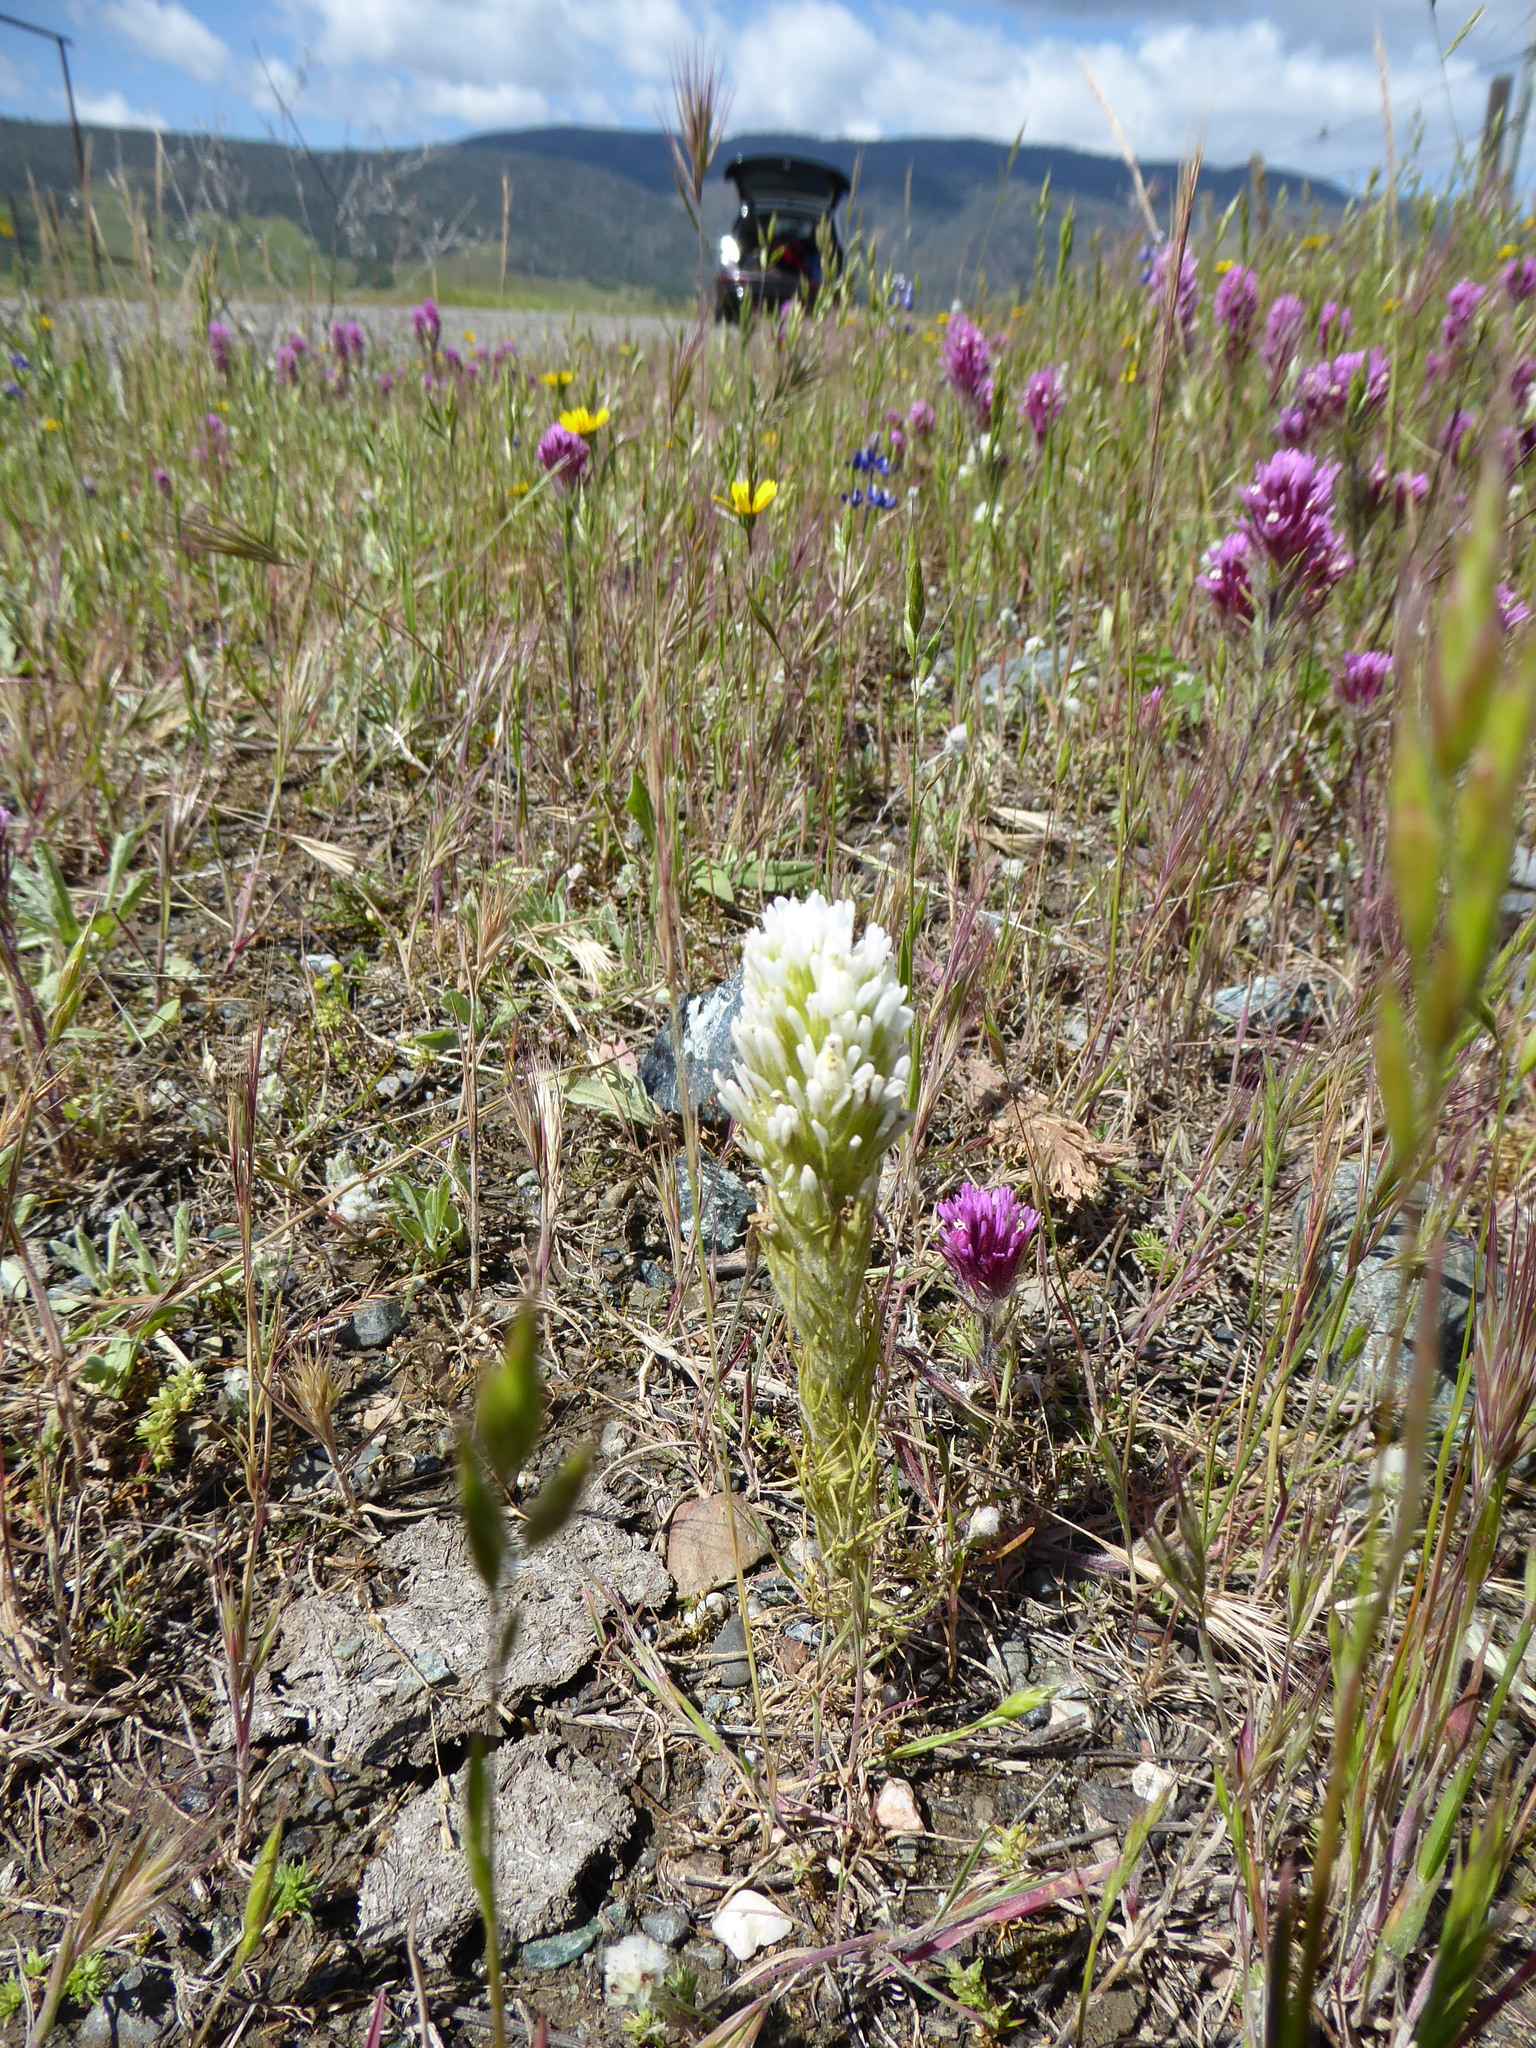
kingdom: Plantae
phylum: Tracheophyta
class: Magnoliopsida
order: Lamiales
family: Orobanchaceae
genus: Castilleja
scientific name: Castilleja attenuata
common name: Valley tassels
